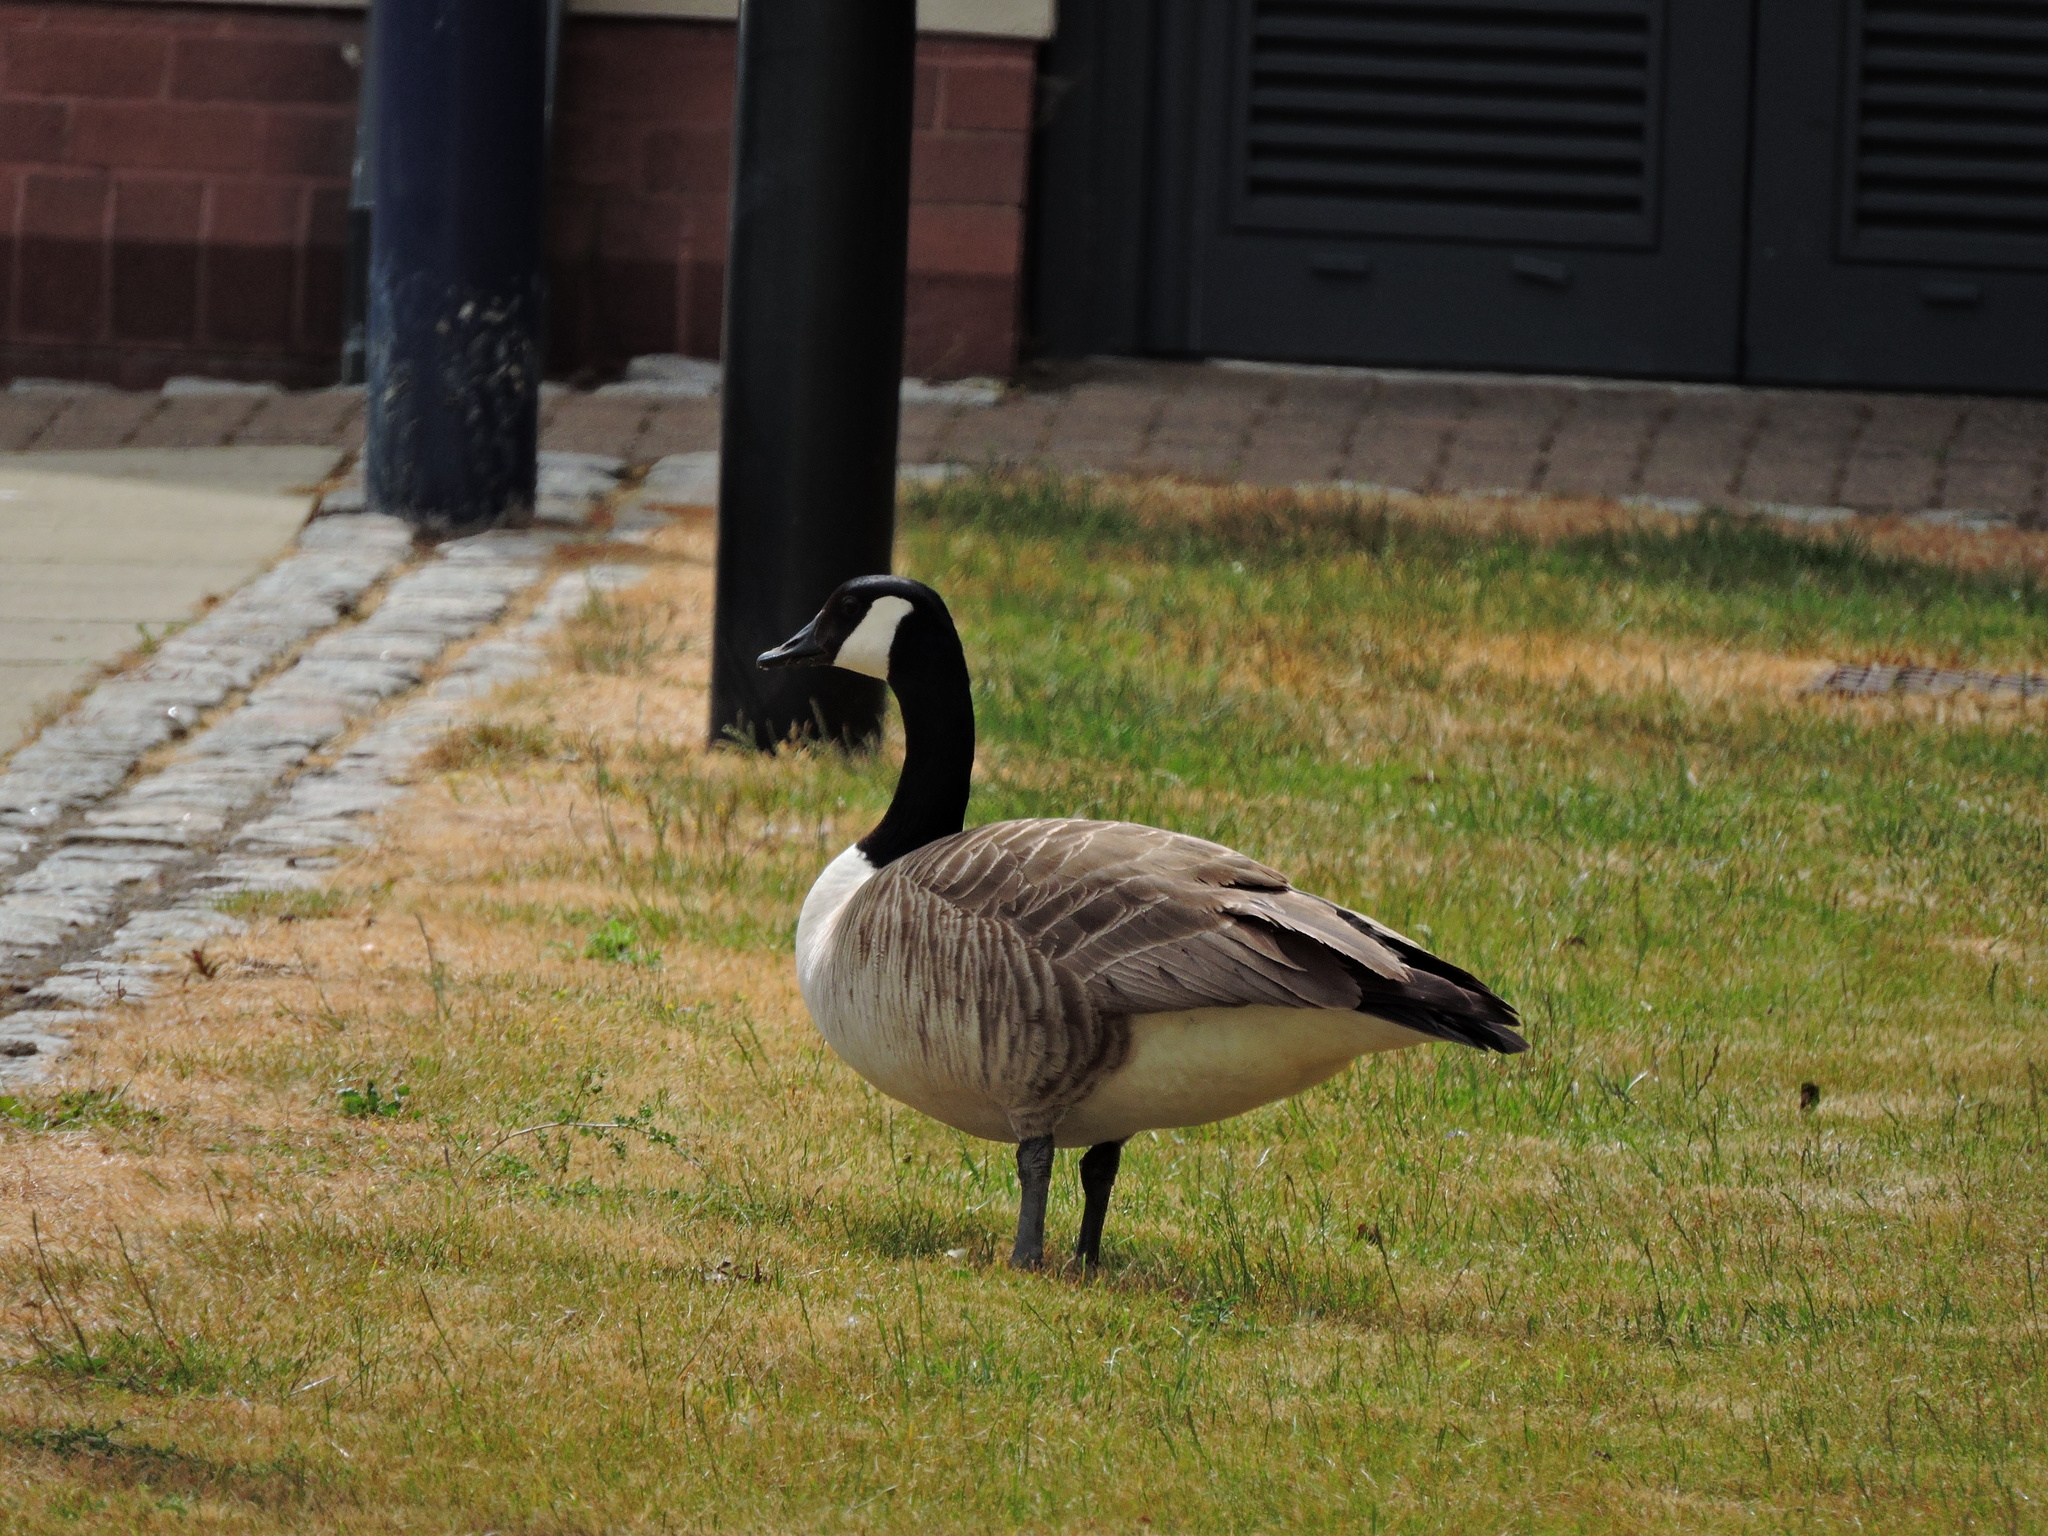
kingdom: Animalia
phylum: Chordata
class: Aves
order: Anseriformes
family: Anatidae
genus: Branta
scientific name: Branta canadensis
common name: Canada goose
